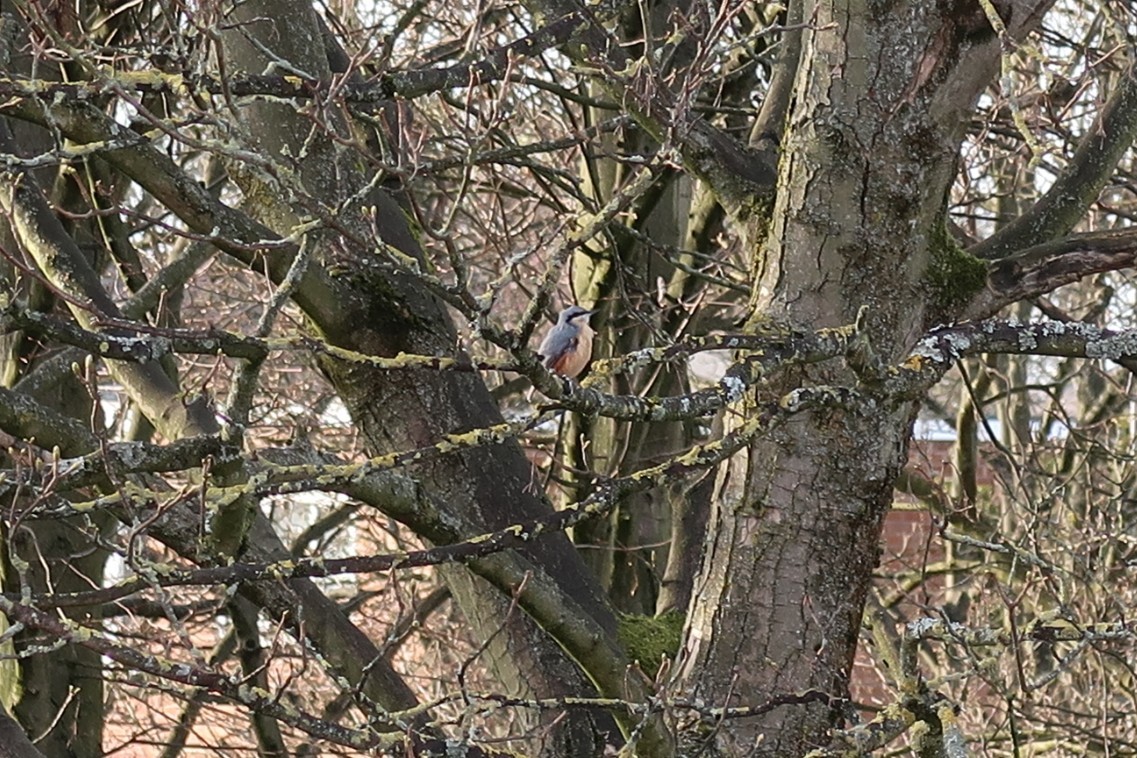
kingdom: Animalia
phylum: Chordata
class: Aves
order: Passeriformes
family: Sittidae
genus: Sitta
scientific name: Sitta europaea
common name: Eurasian nuthatch
